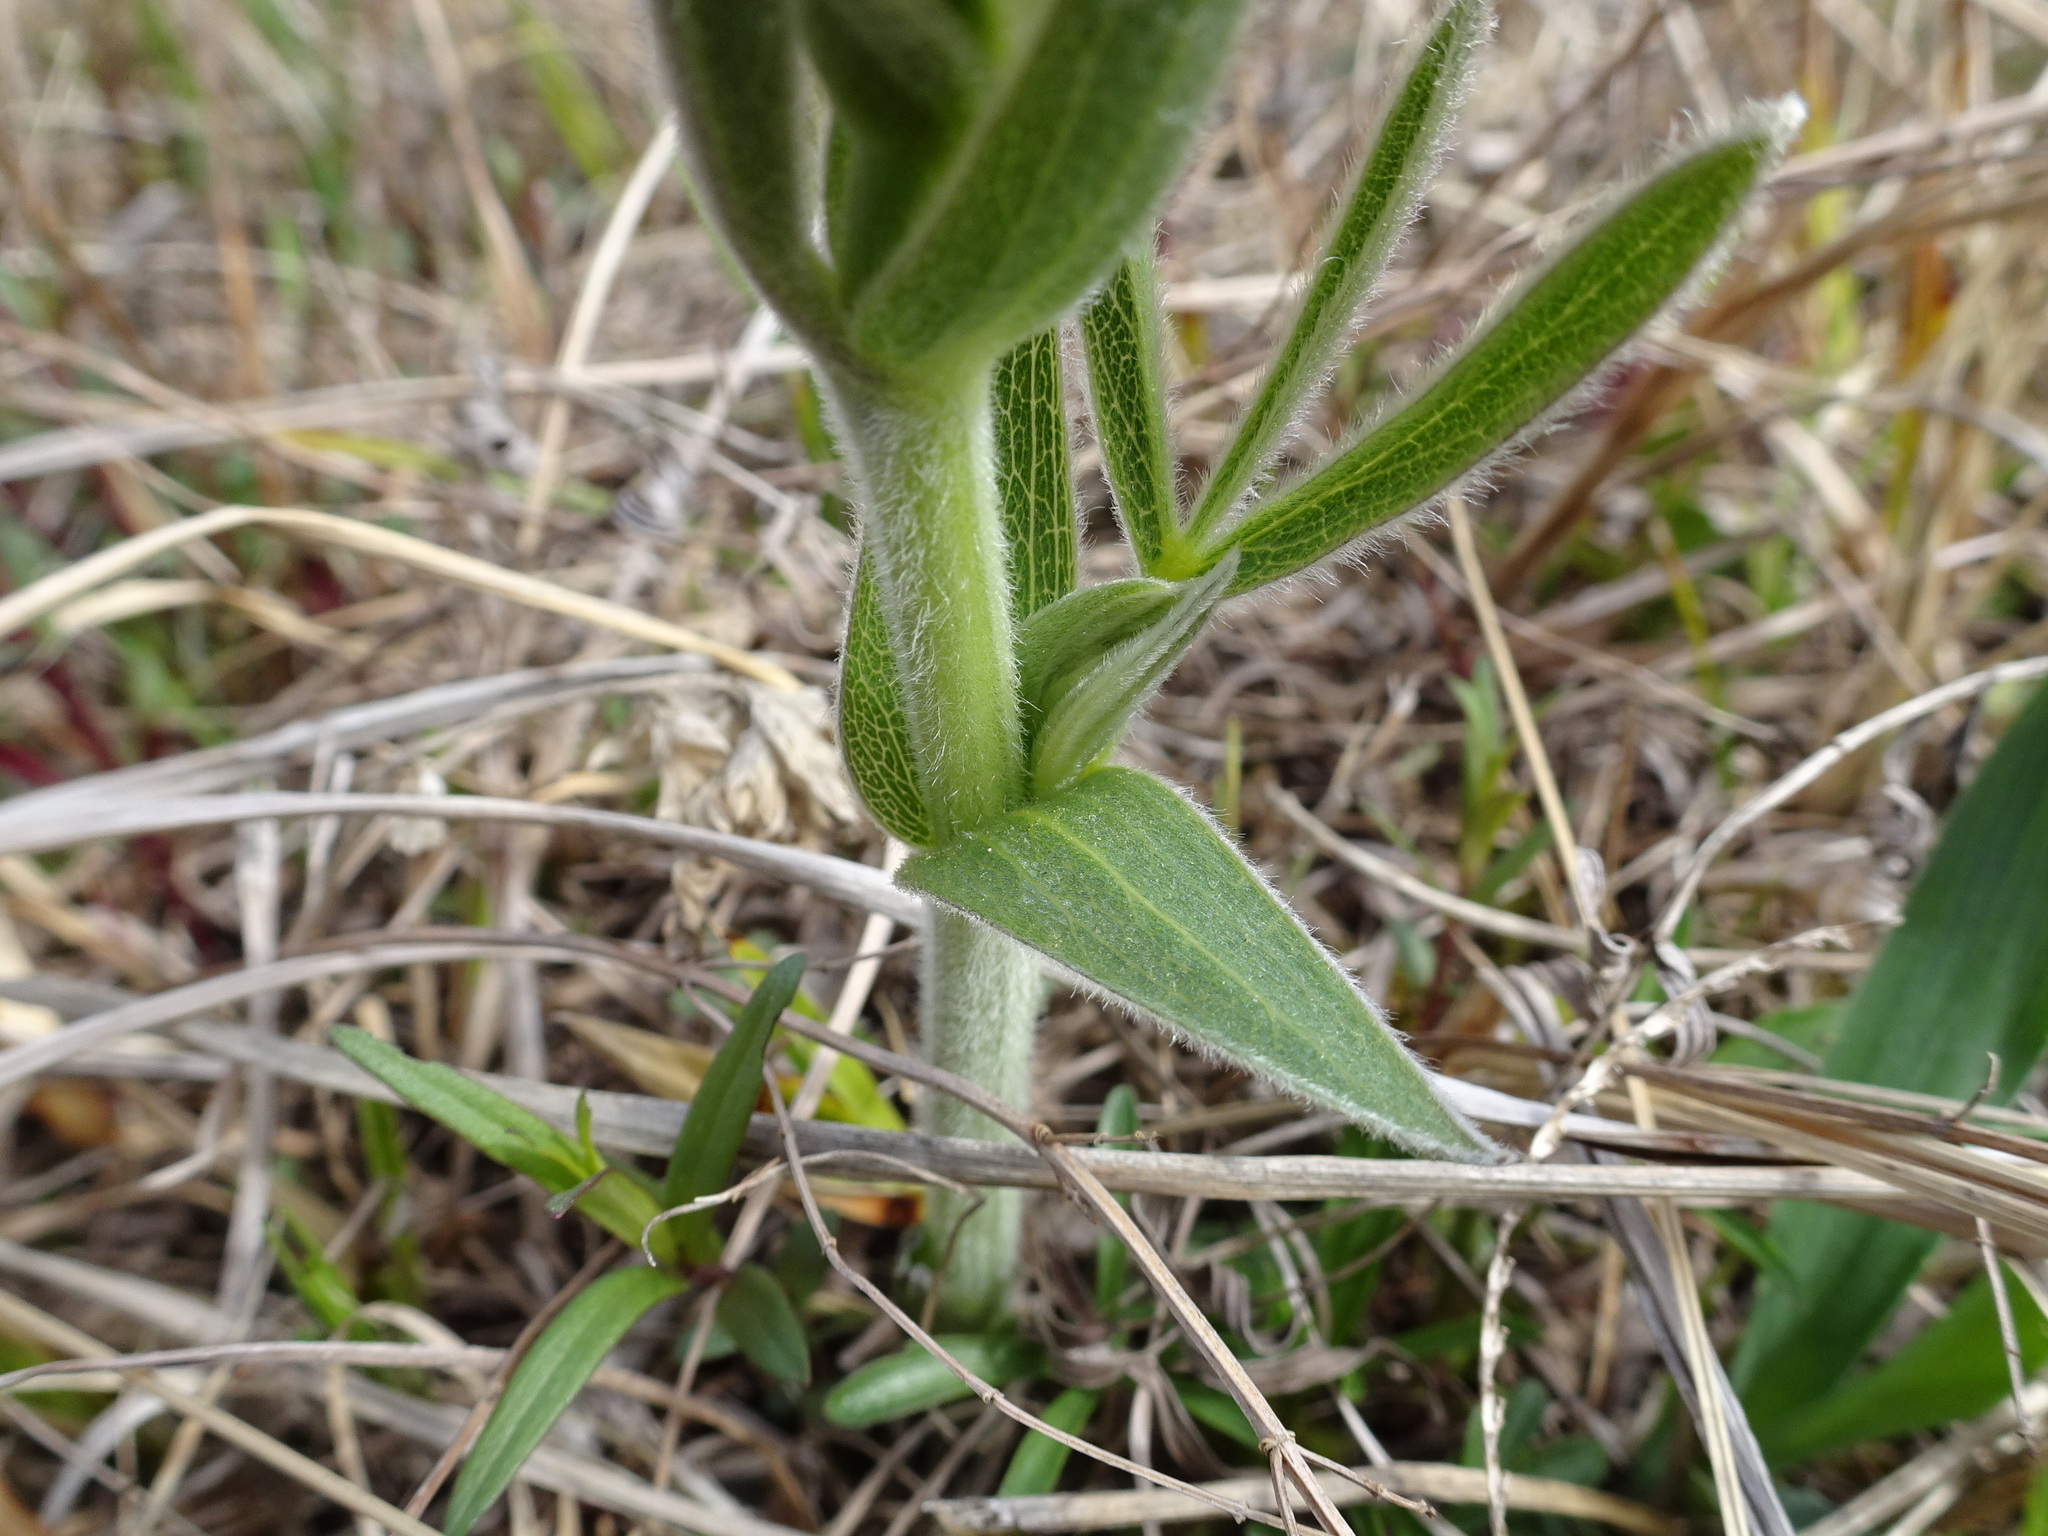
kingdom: Plantae
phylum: Tracheophyta
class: Magnoliopsida
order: Fabales
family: Fabaceae
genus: Baptisia
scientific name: Baptisia bracteata
